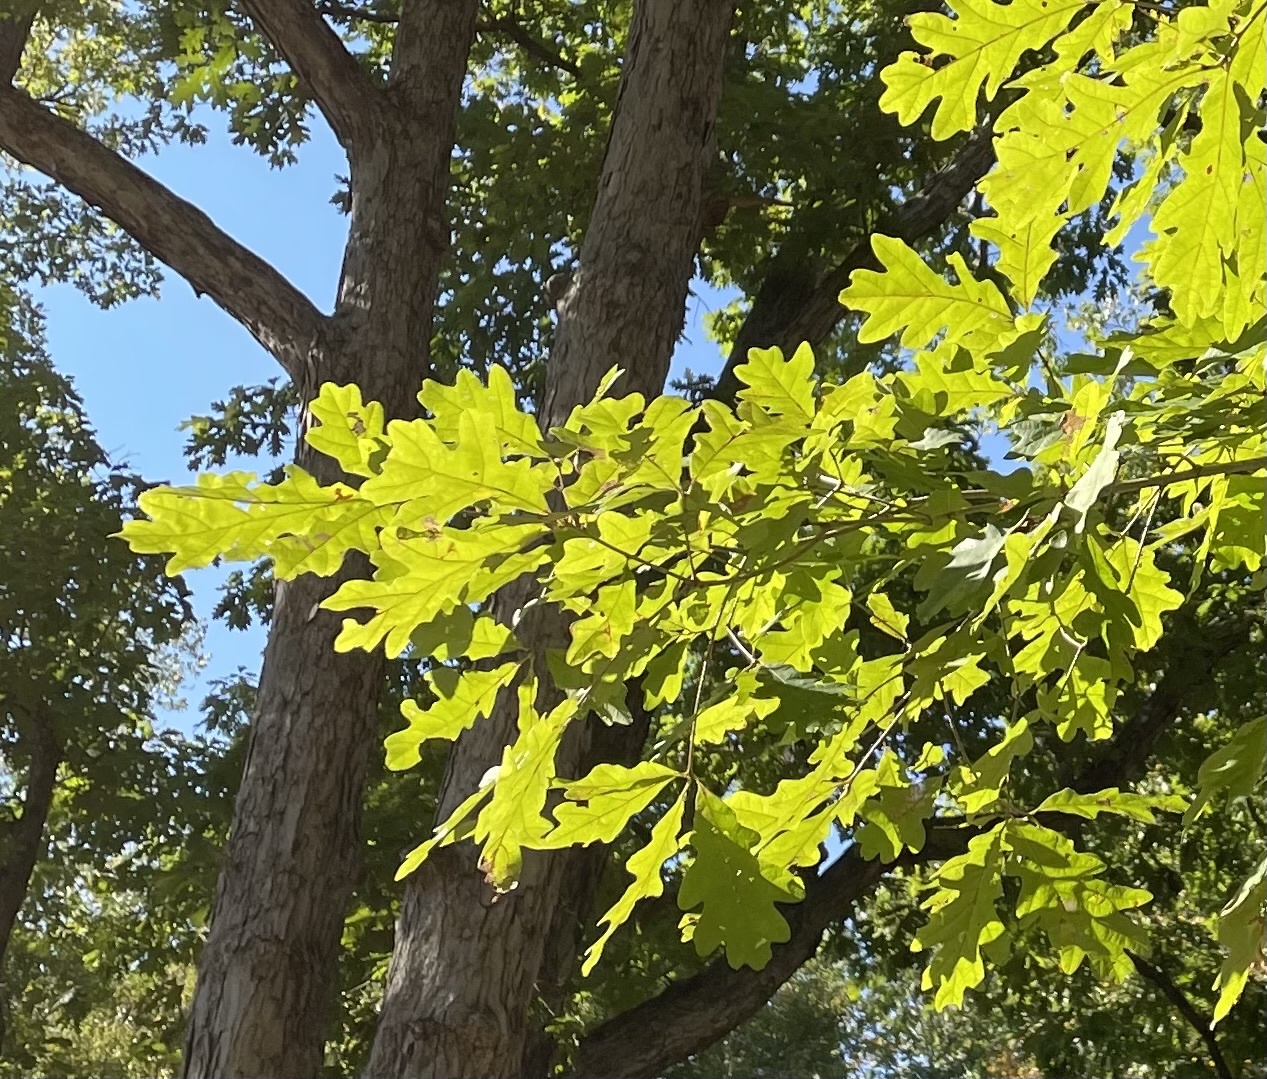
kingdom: Plantae
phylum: Tracheophyta
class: Magnoliopsida
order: Fagales
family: Fagaceae
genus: Quercus
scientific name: Quercus alba
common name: White oak
